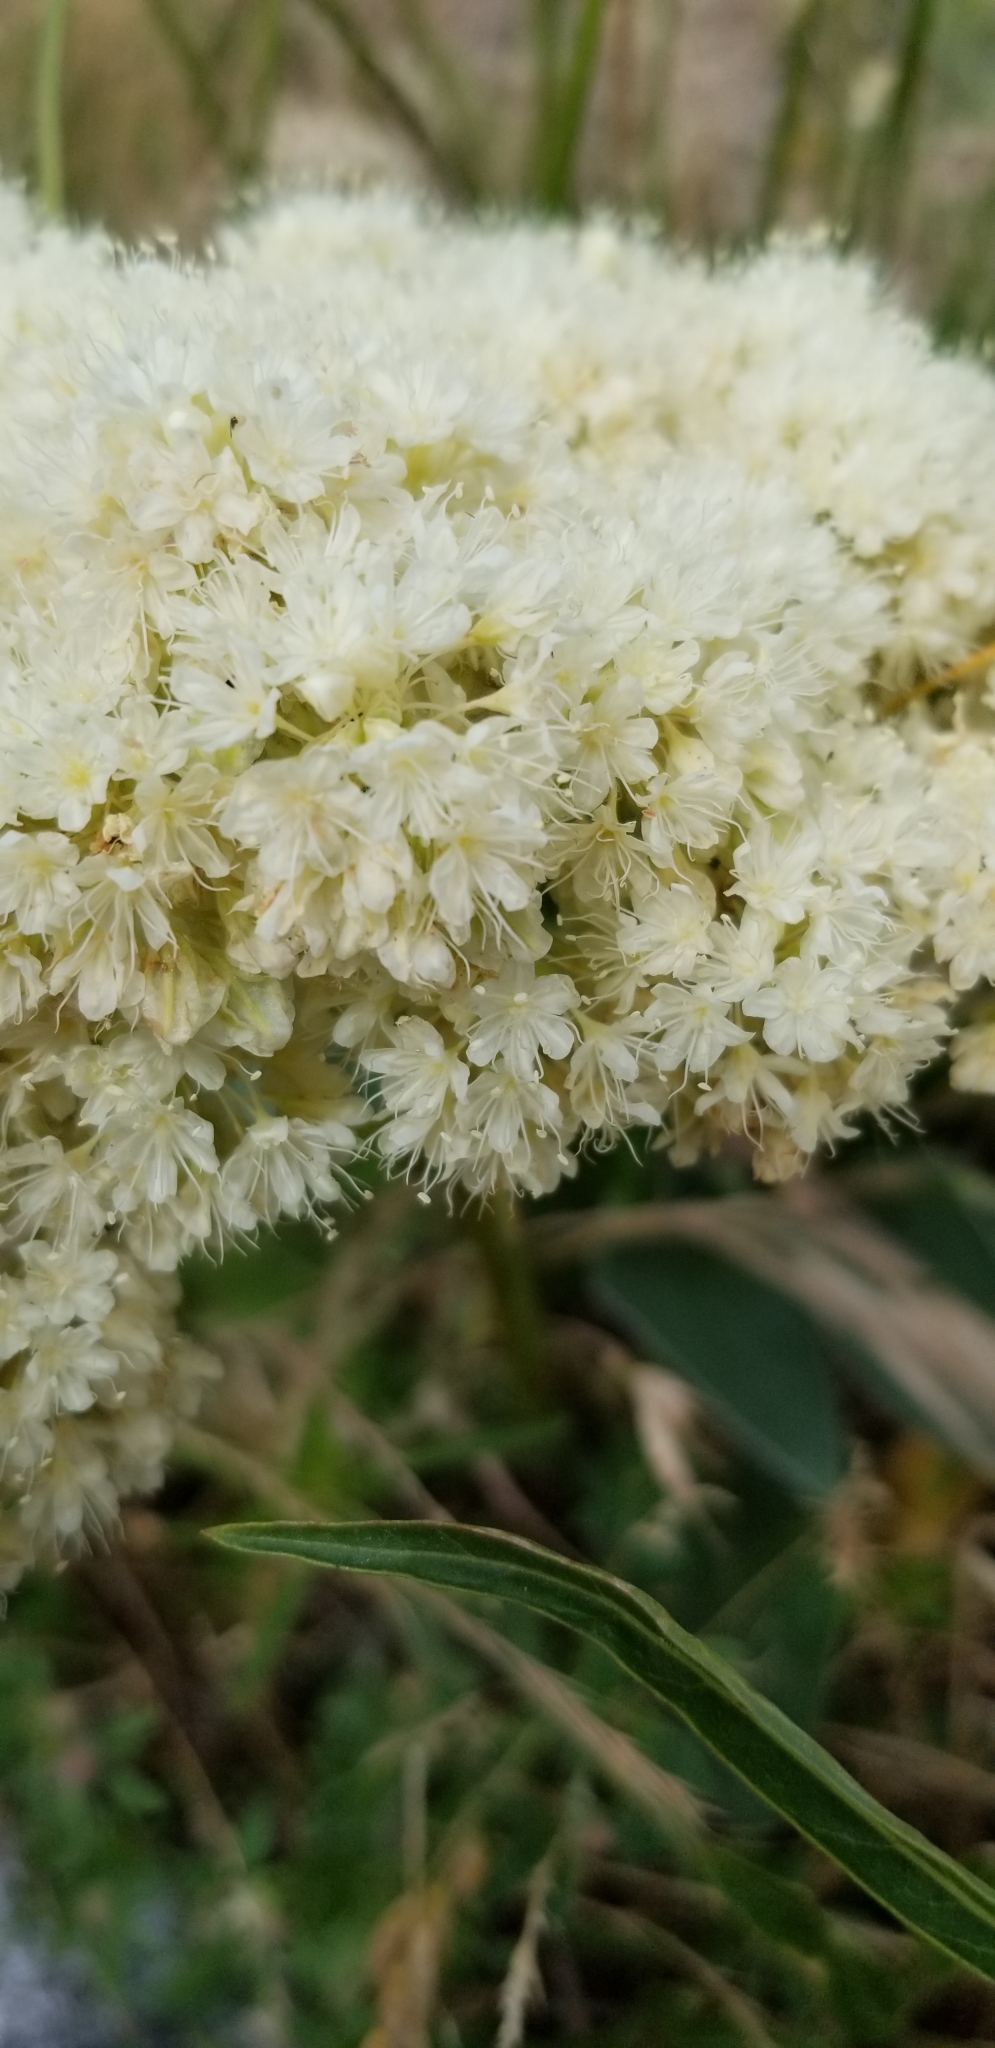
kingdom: Plantae
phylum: Tracheophyta
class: Magnoliopsida
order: Caryophyllales
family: Polygonaceae
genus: Eriogonum
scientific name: Eriogonum compositum
